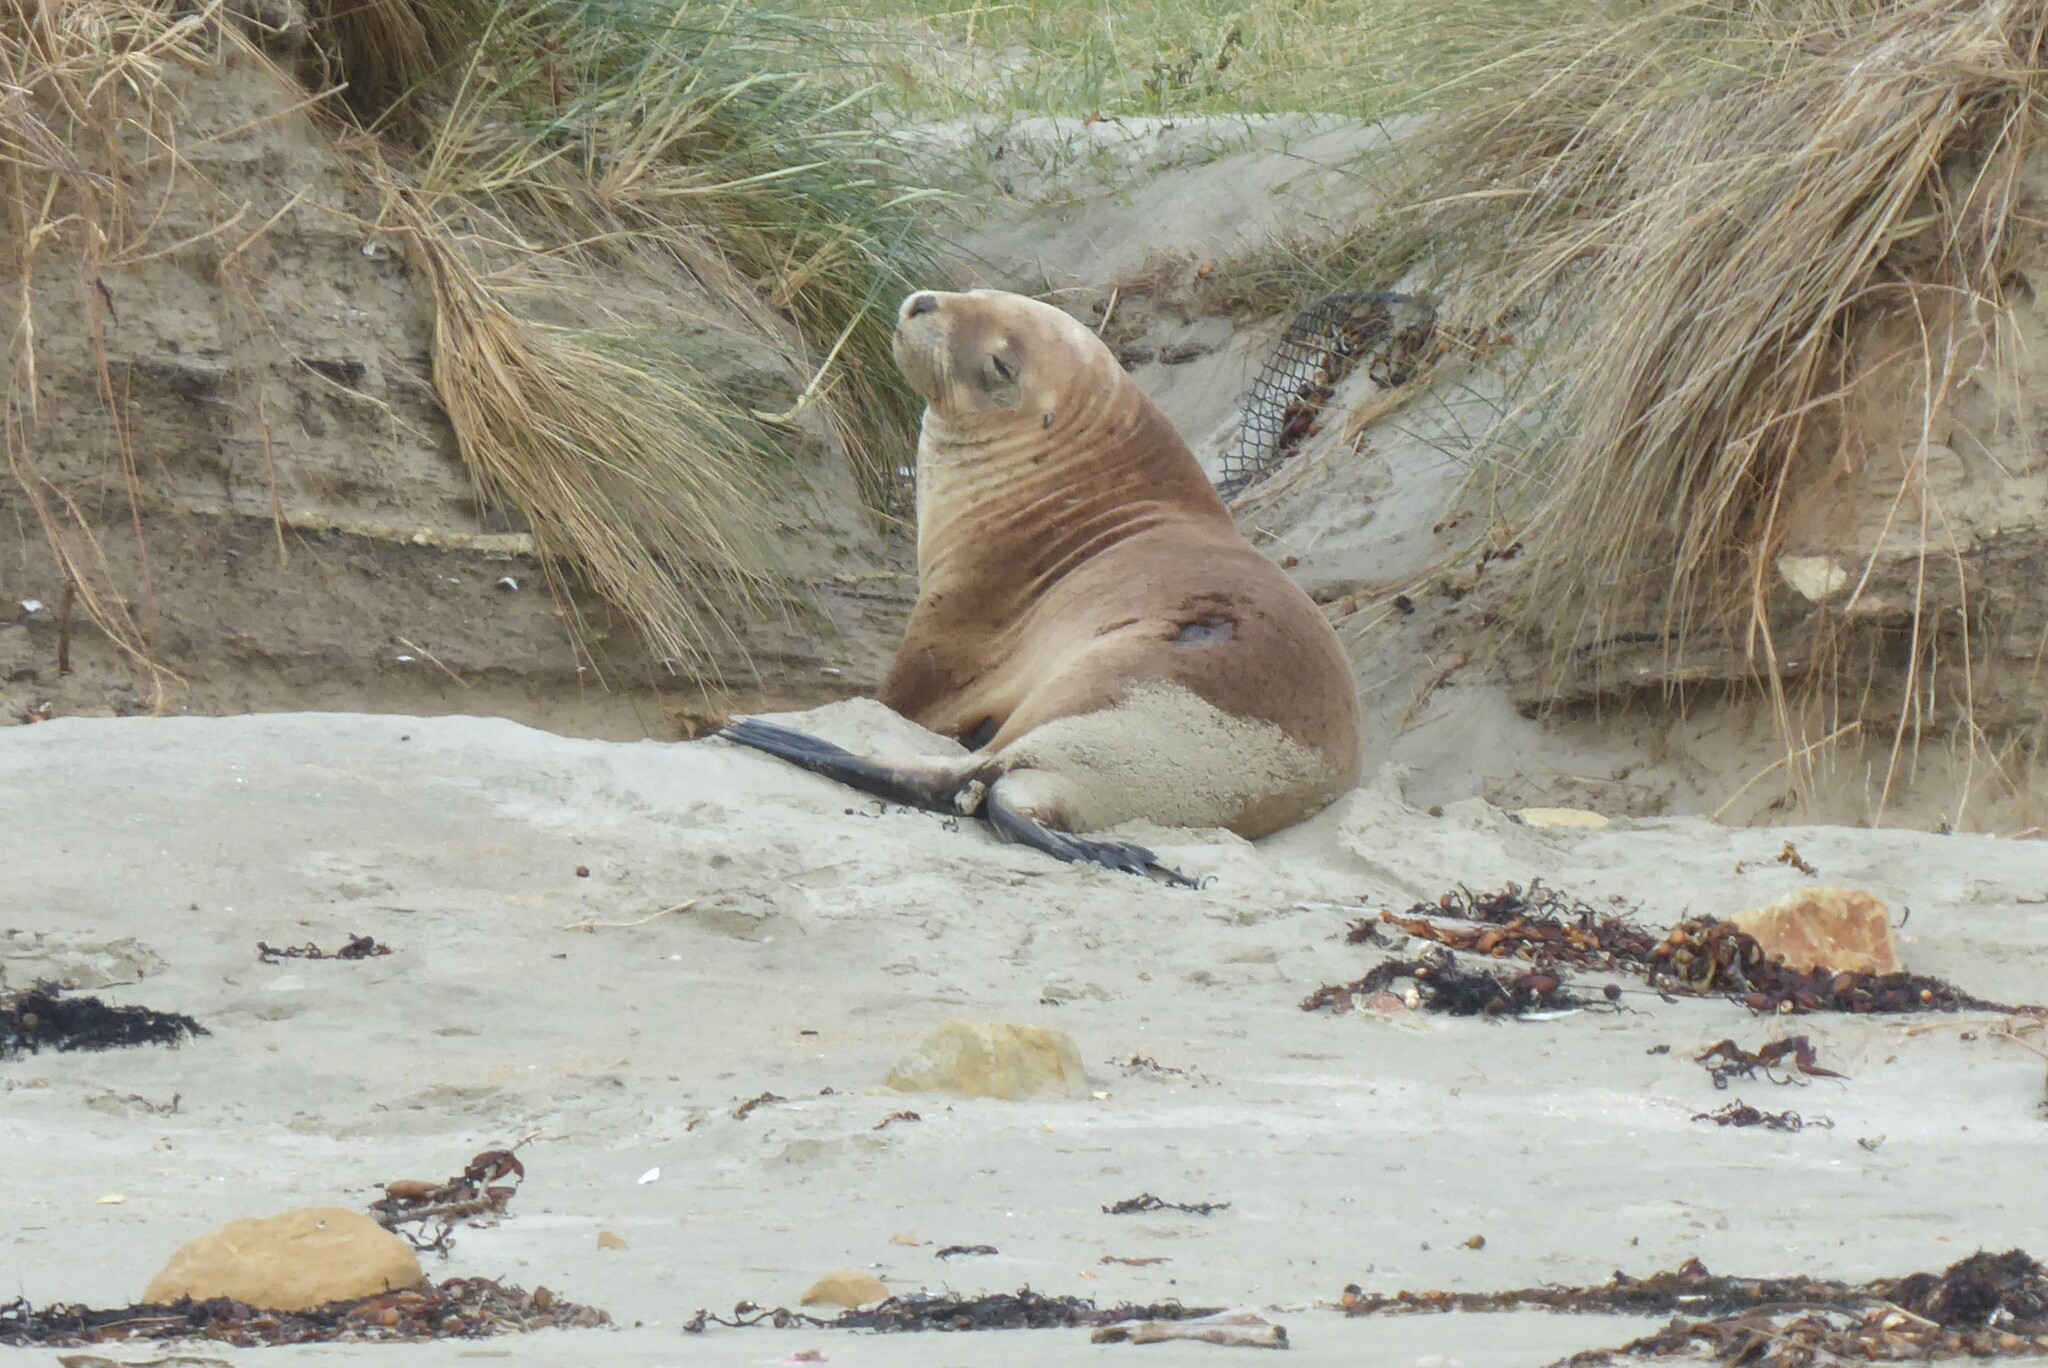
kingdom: Animalia
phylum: Chordata
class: Mammalia
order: Carnivora
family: Otariidae
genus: Phocarctos
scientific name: Phocarctos hookeri
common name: New zealand sea lion
